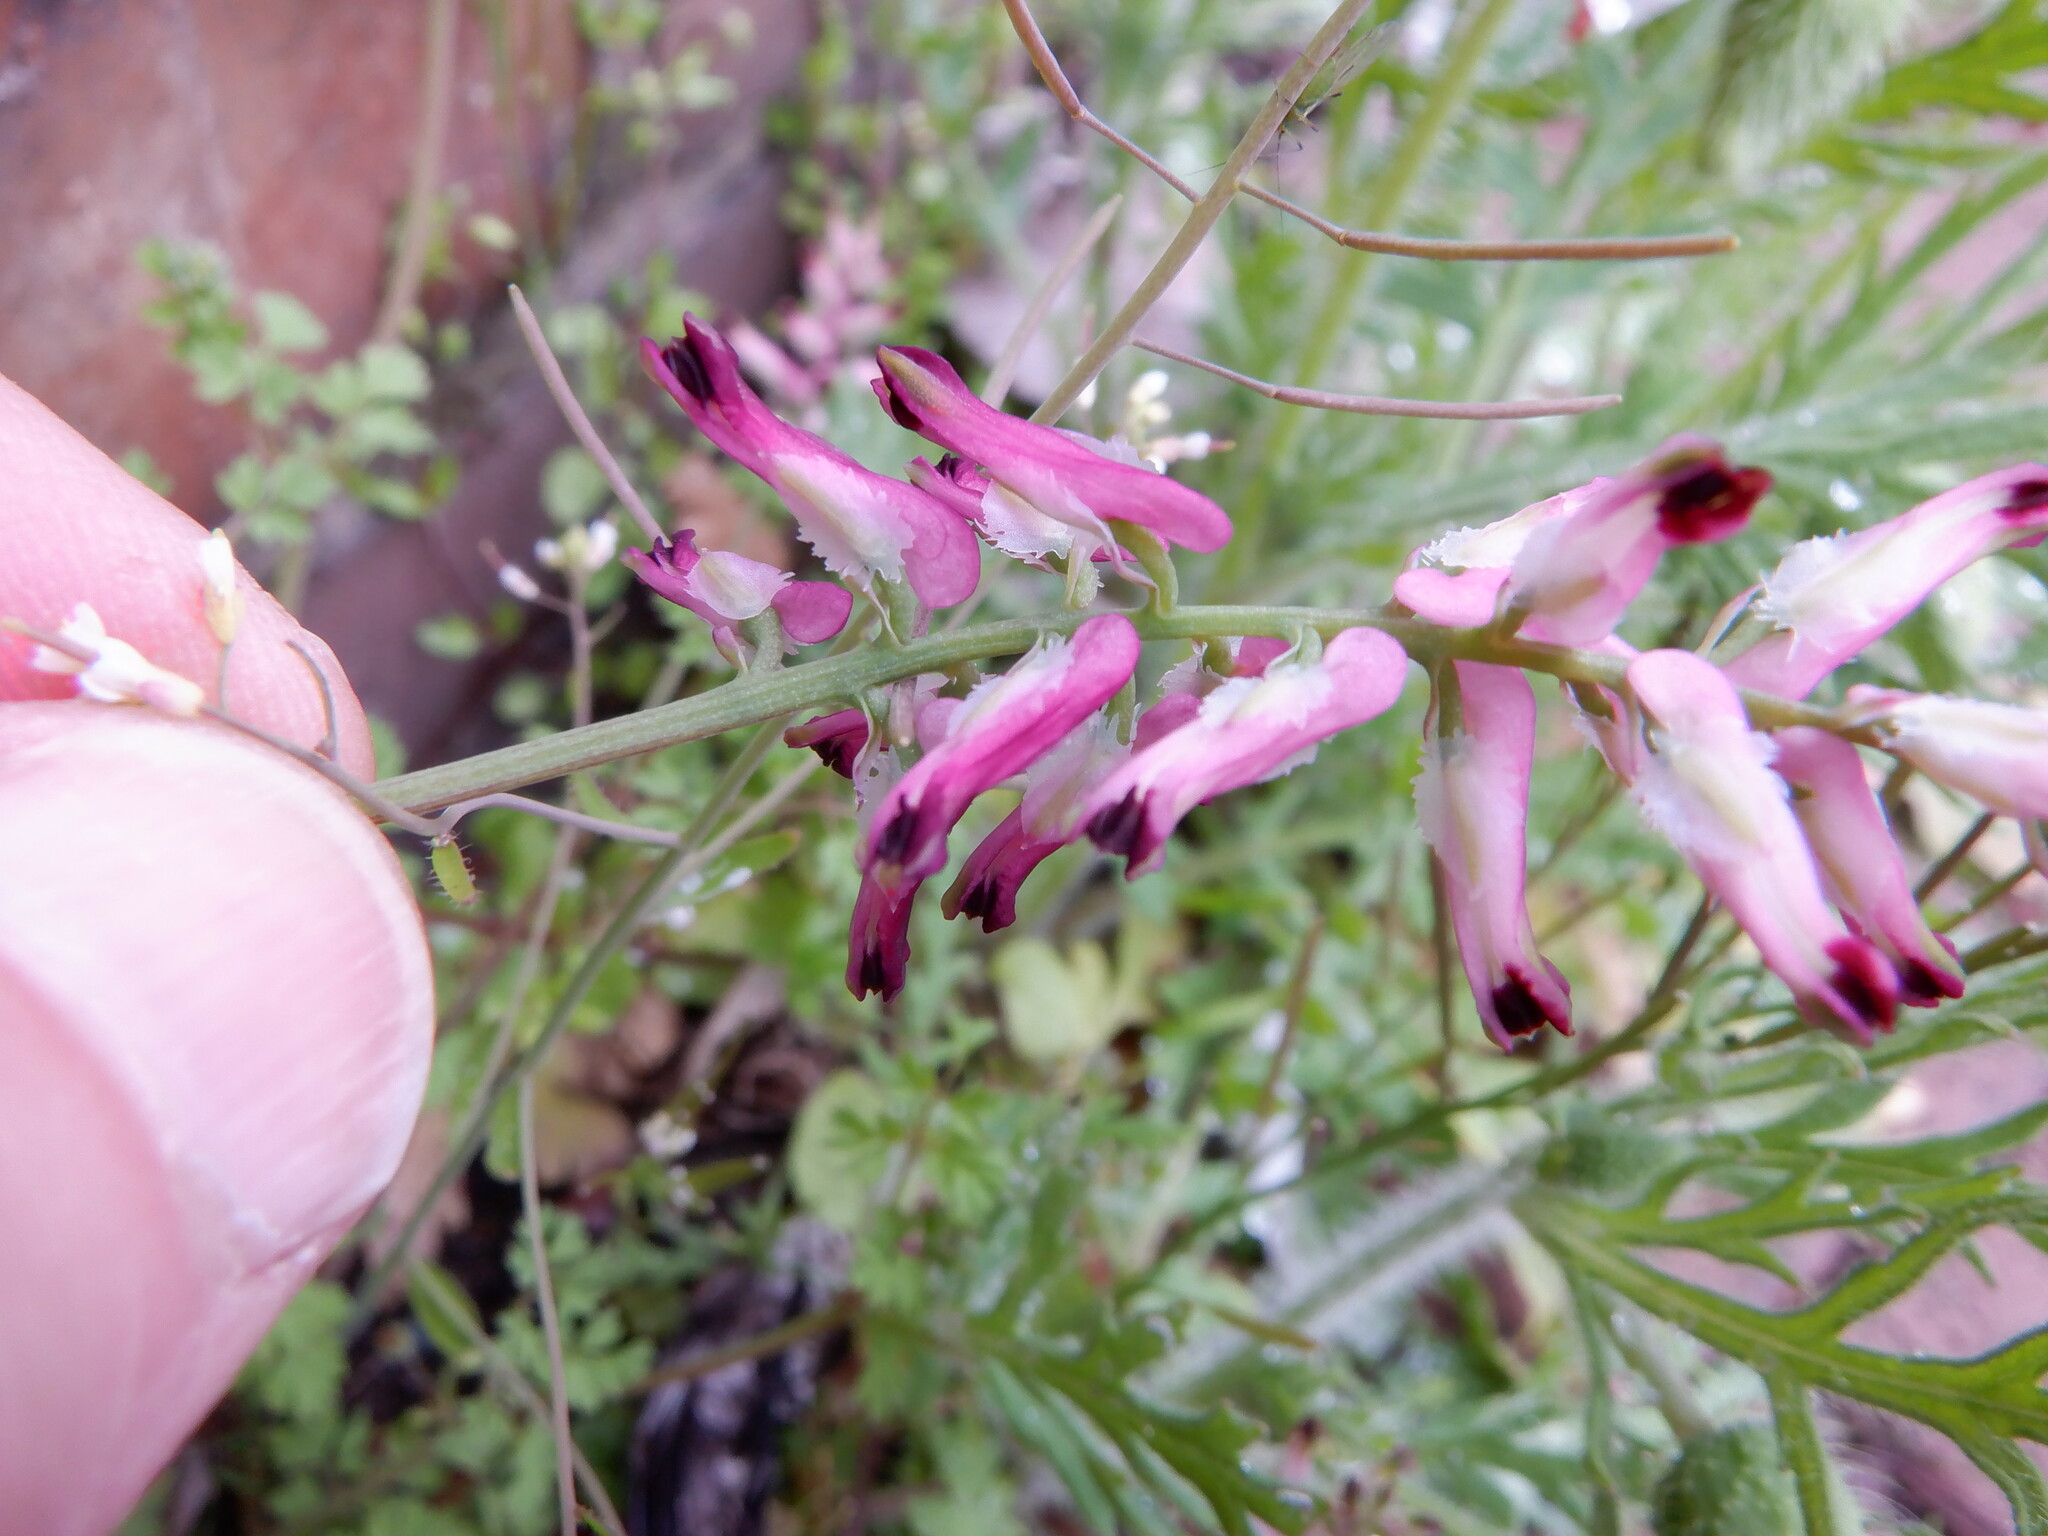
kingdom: Plantae
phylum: Tracheophyta
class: Magnoliopsida
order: Ranunculales
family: Papaveraceae
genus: Fumaria
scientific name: Fumaria muralis
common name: Common ramping-fumitory
